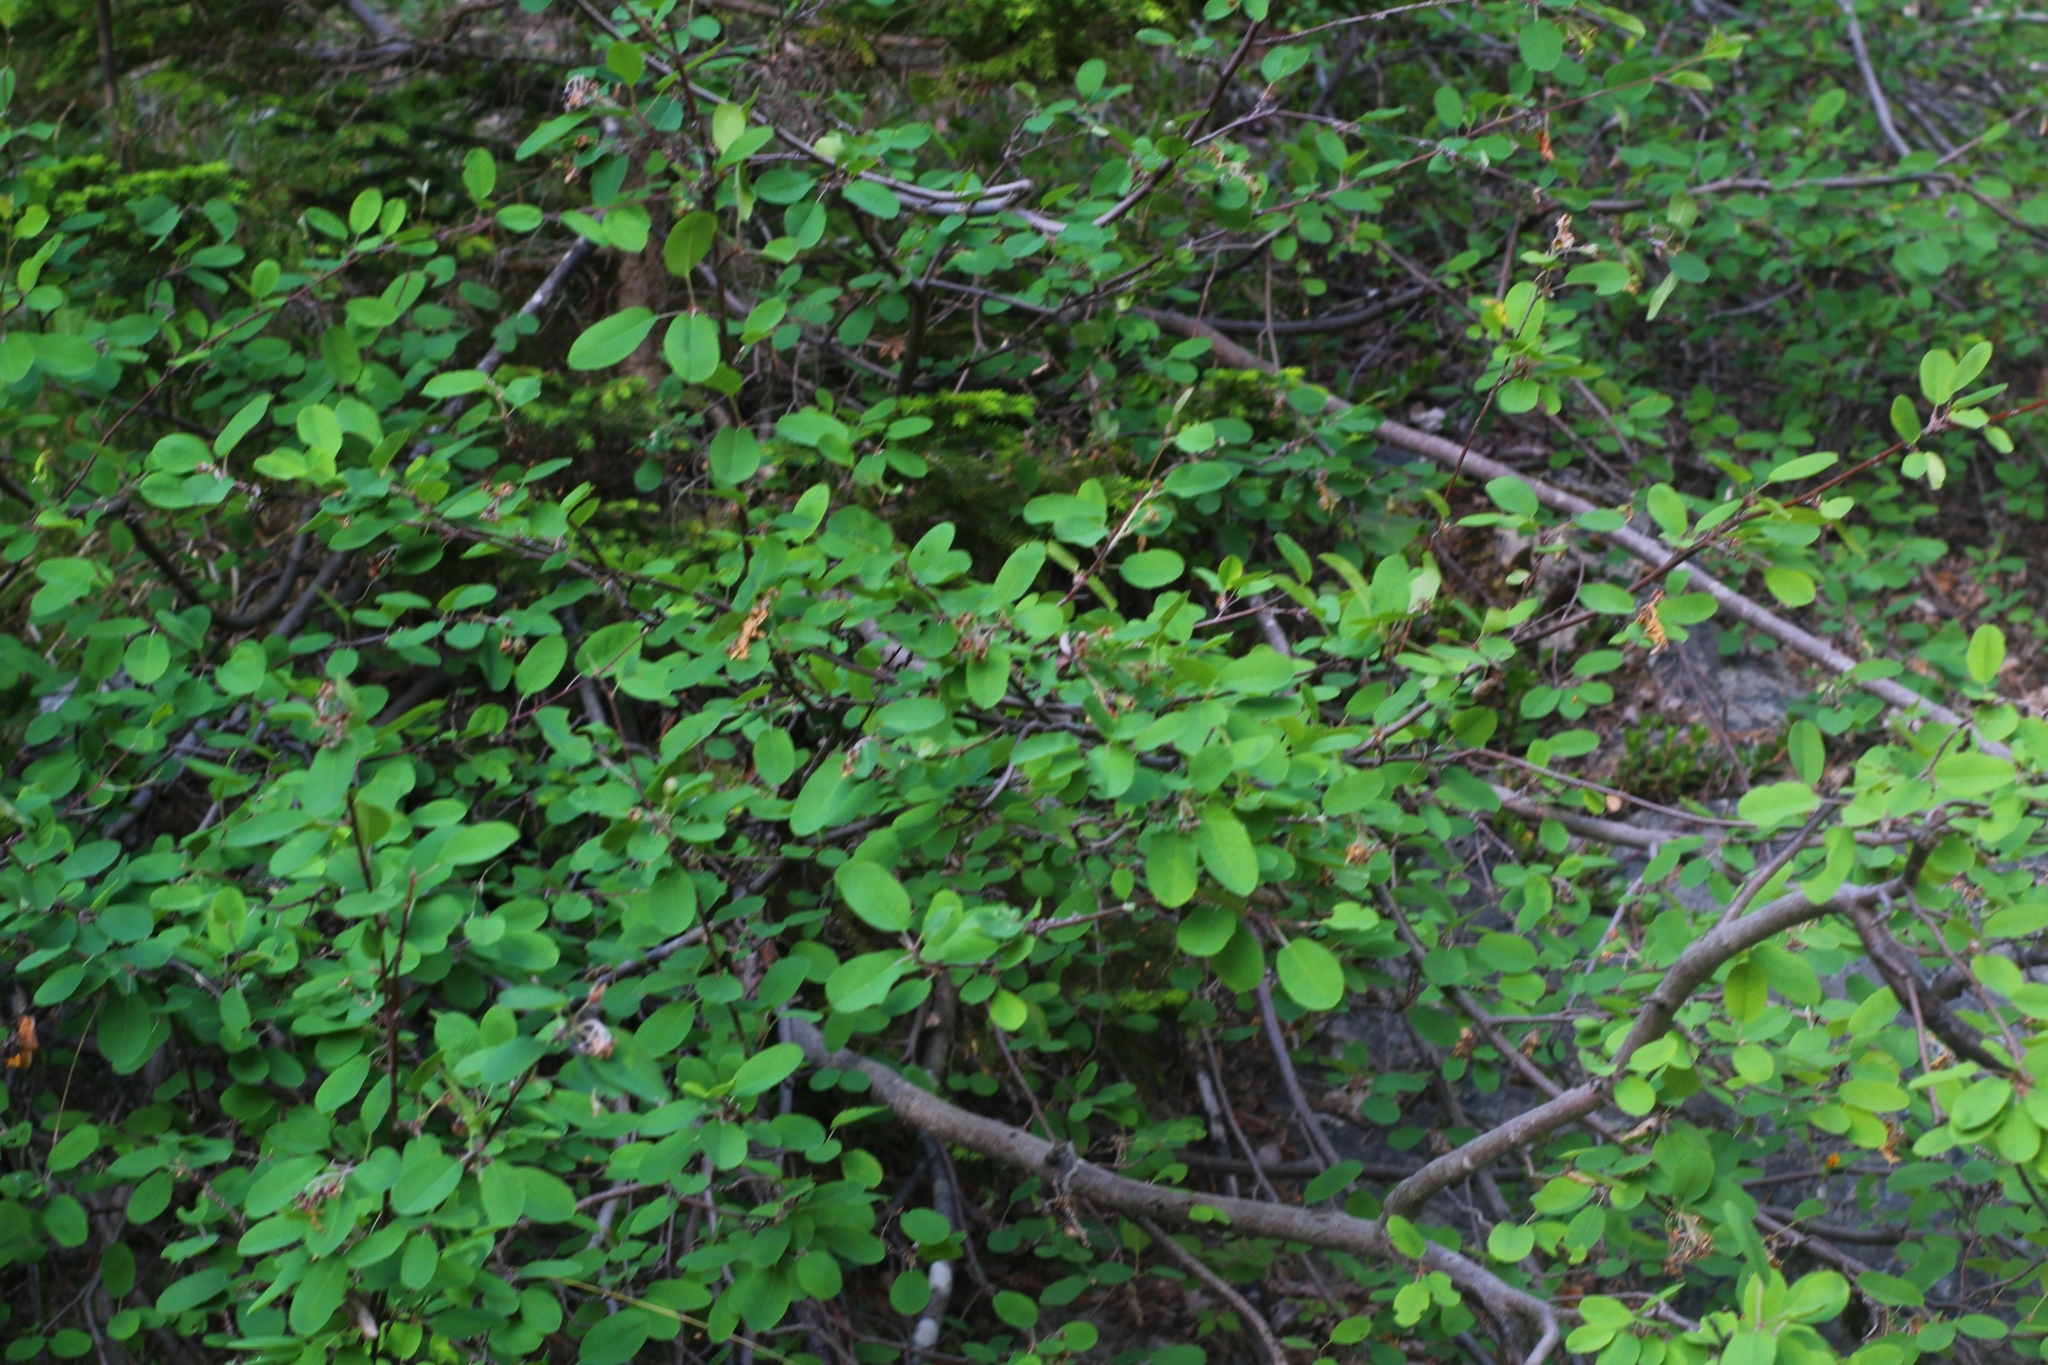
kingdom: Plantae
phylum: Tracheophyta
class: Magnoliopsida
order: Rosales
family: Rosaceae
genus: Amelanchier
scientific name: Amelanchier ovalis
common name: Serviceberry
